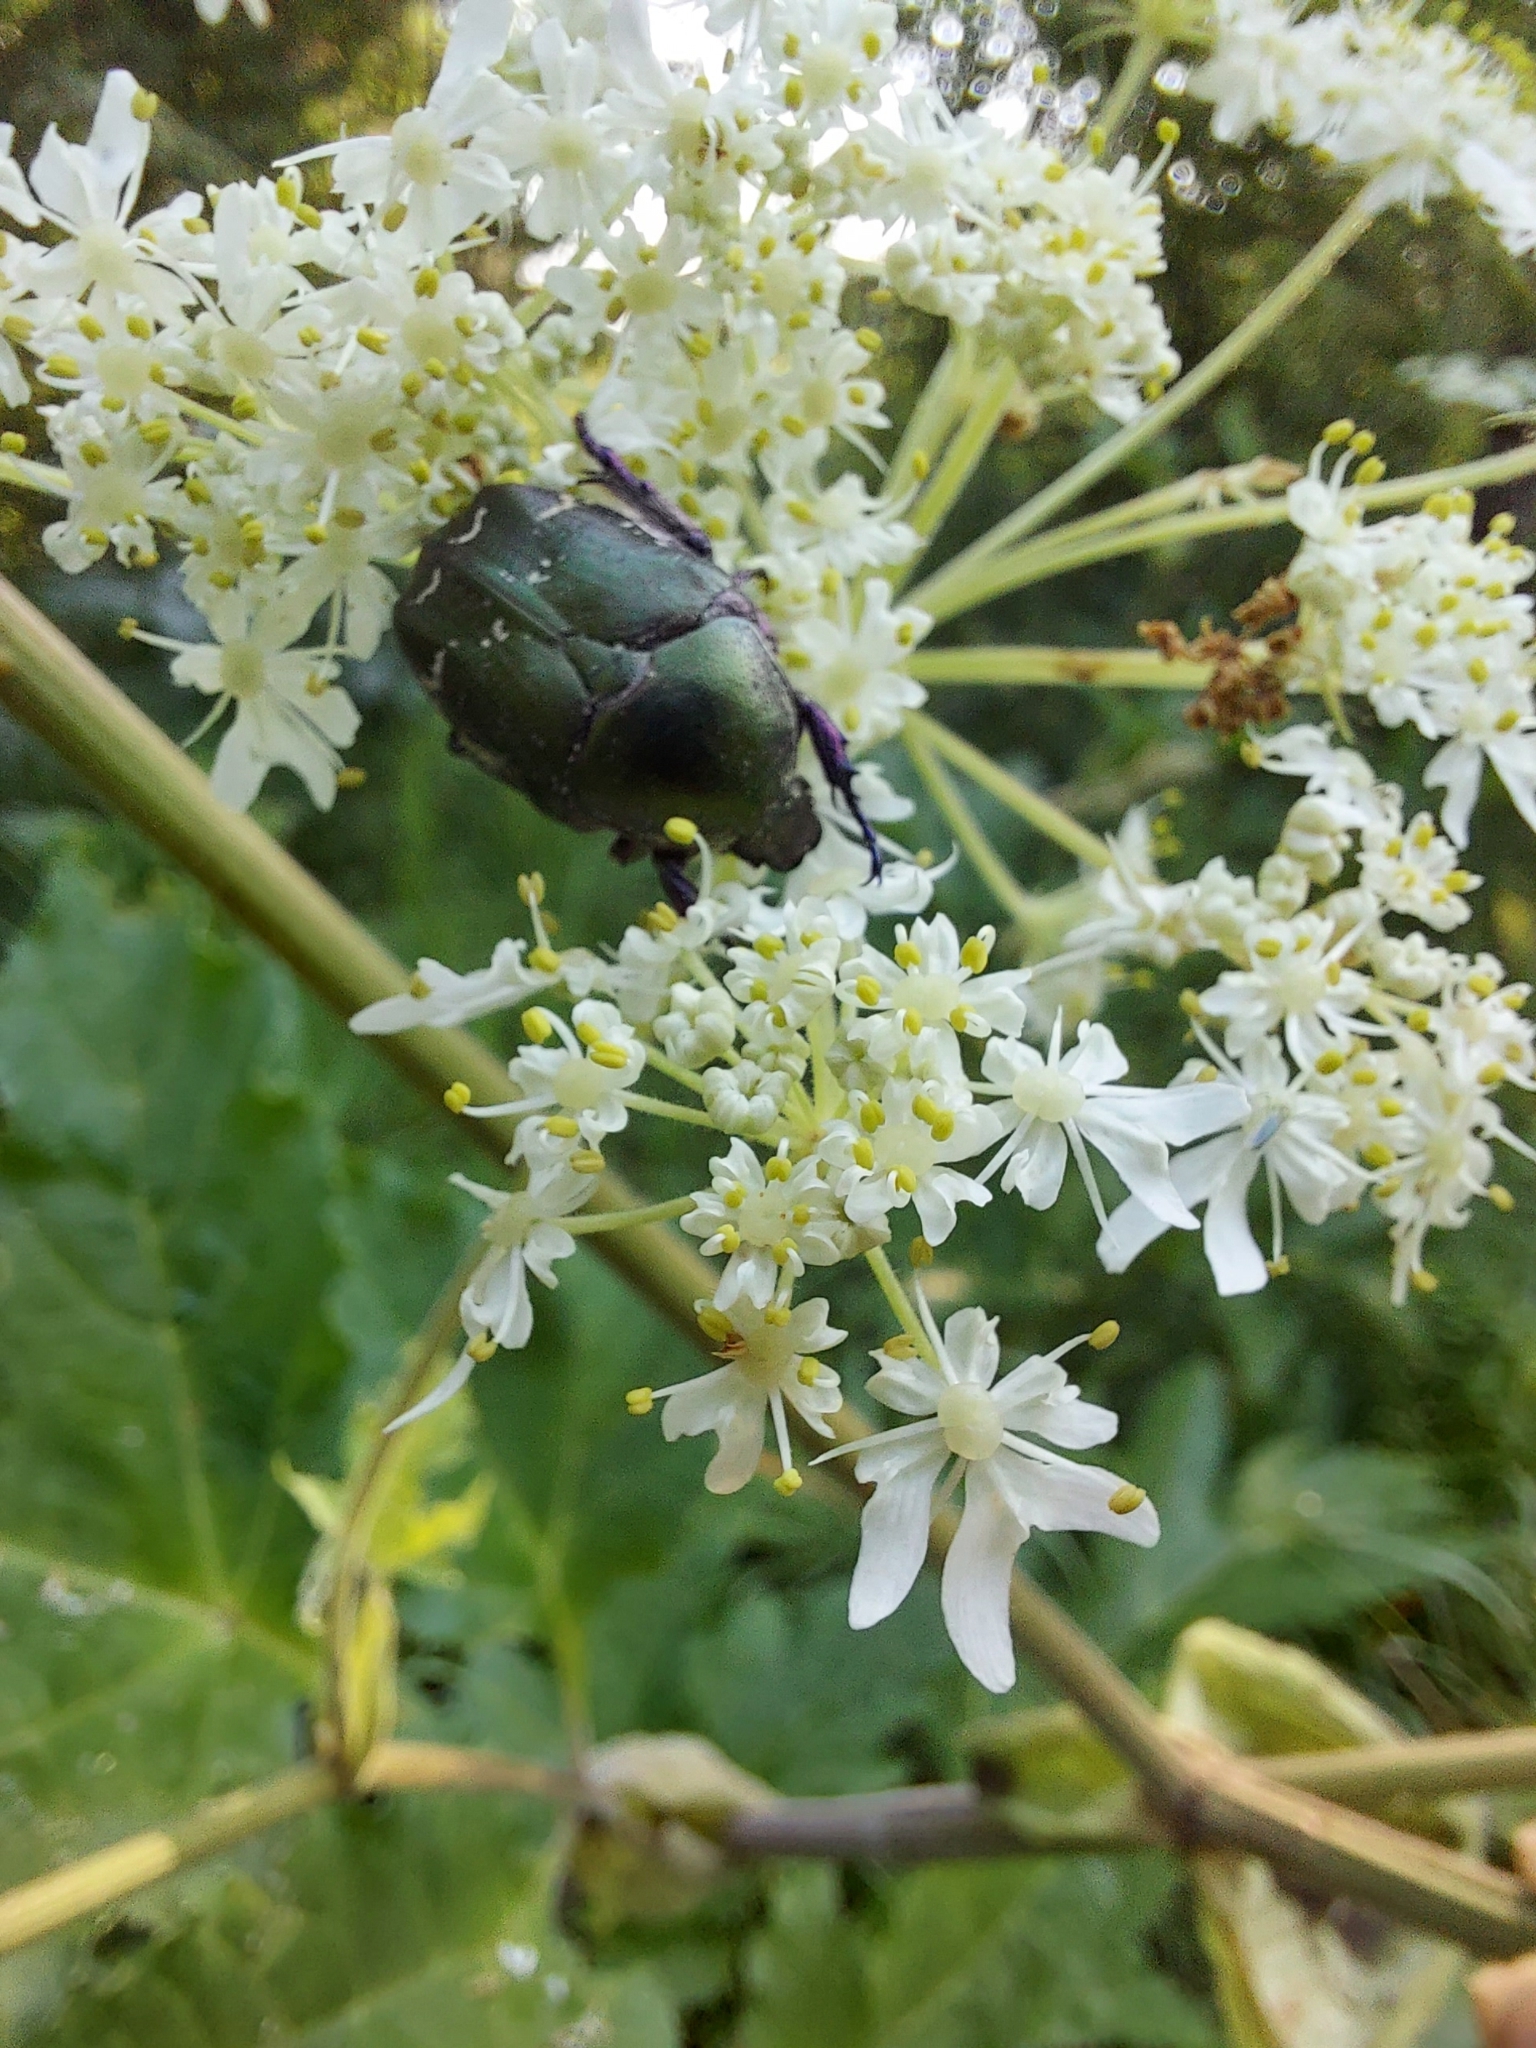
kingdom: Animalia
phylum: Arthropoda
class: Insecta
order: Coleoptera
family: Scarabaeidae
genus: Protaetia
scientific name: Protaetia cuprea
